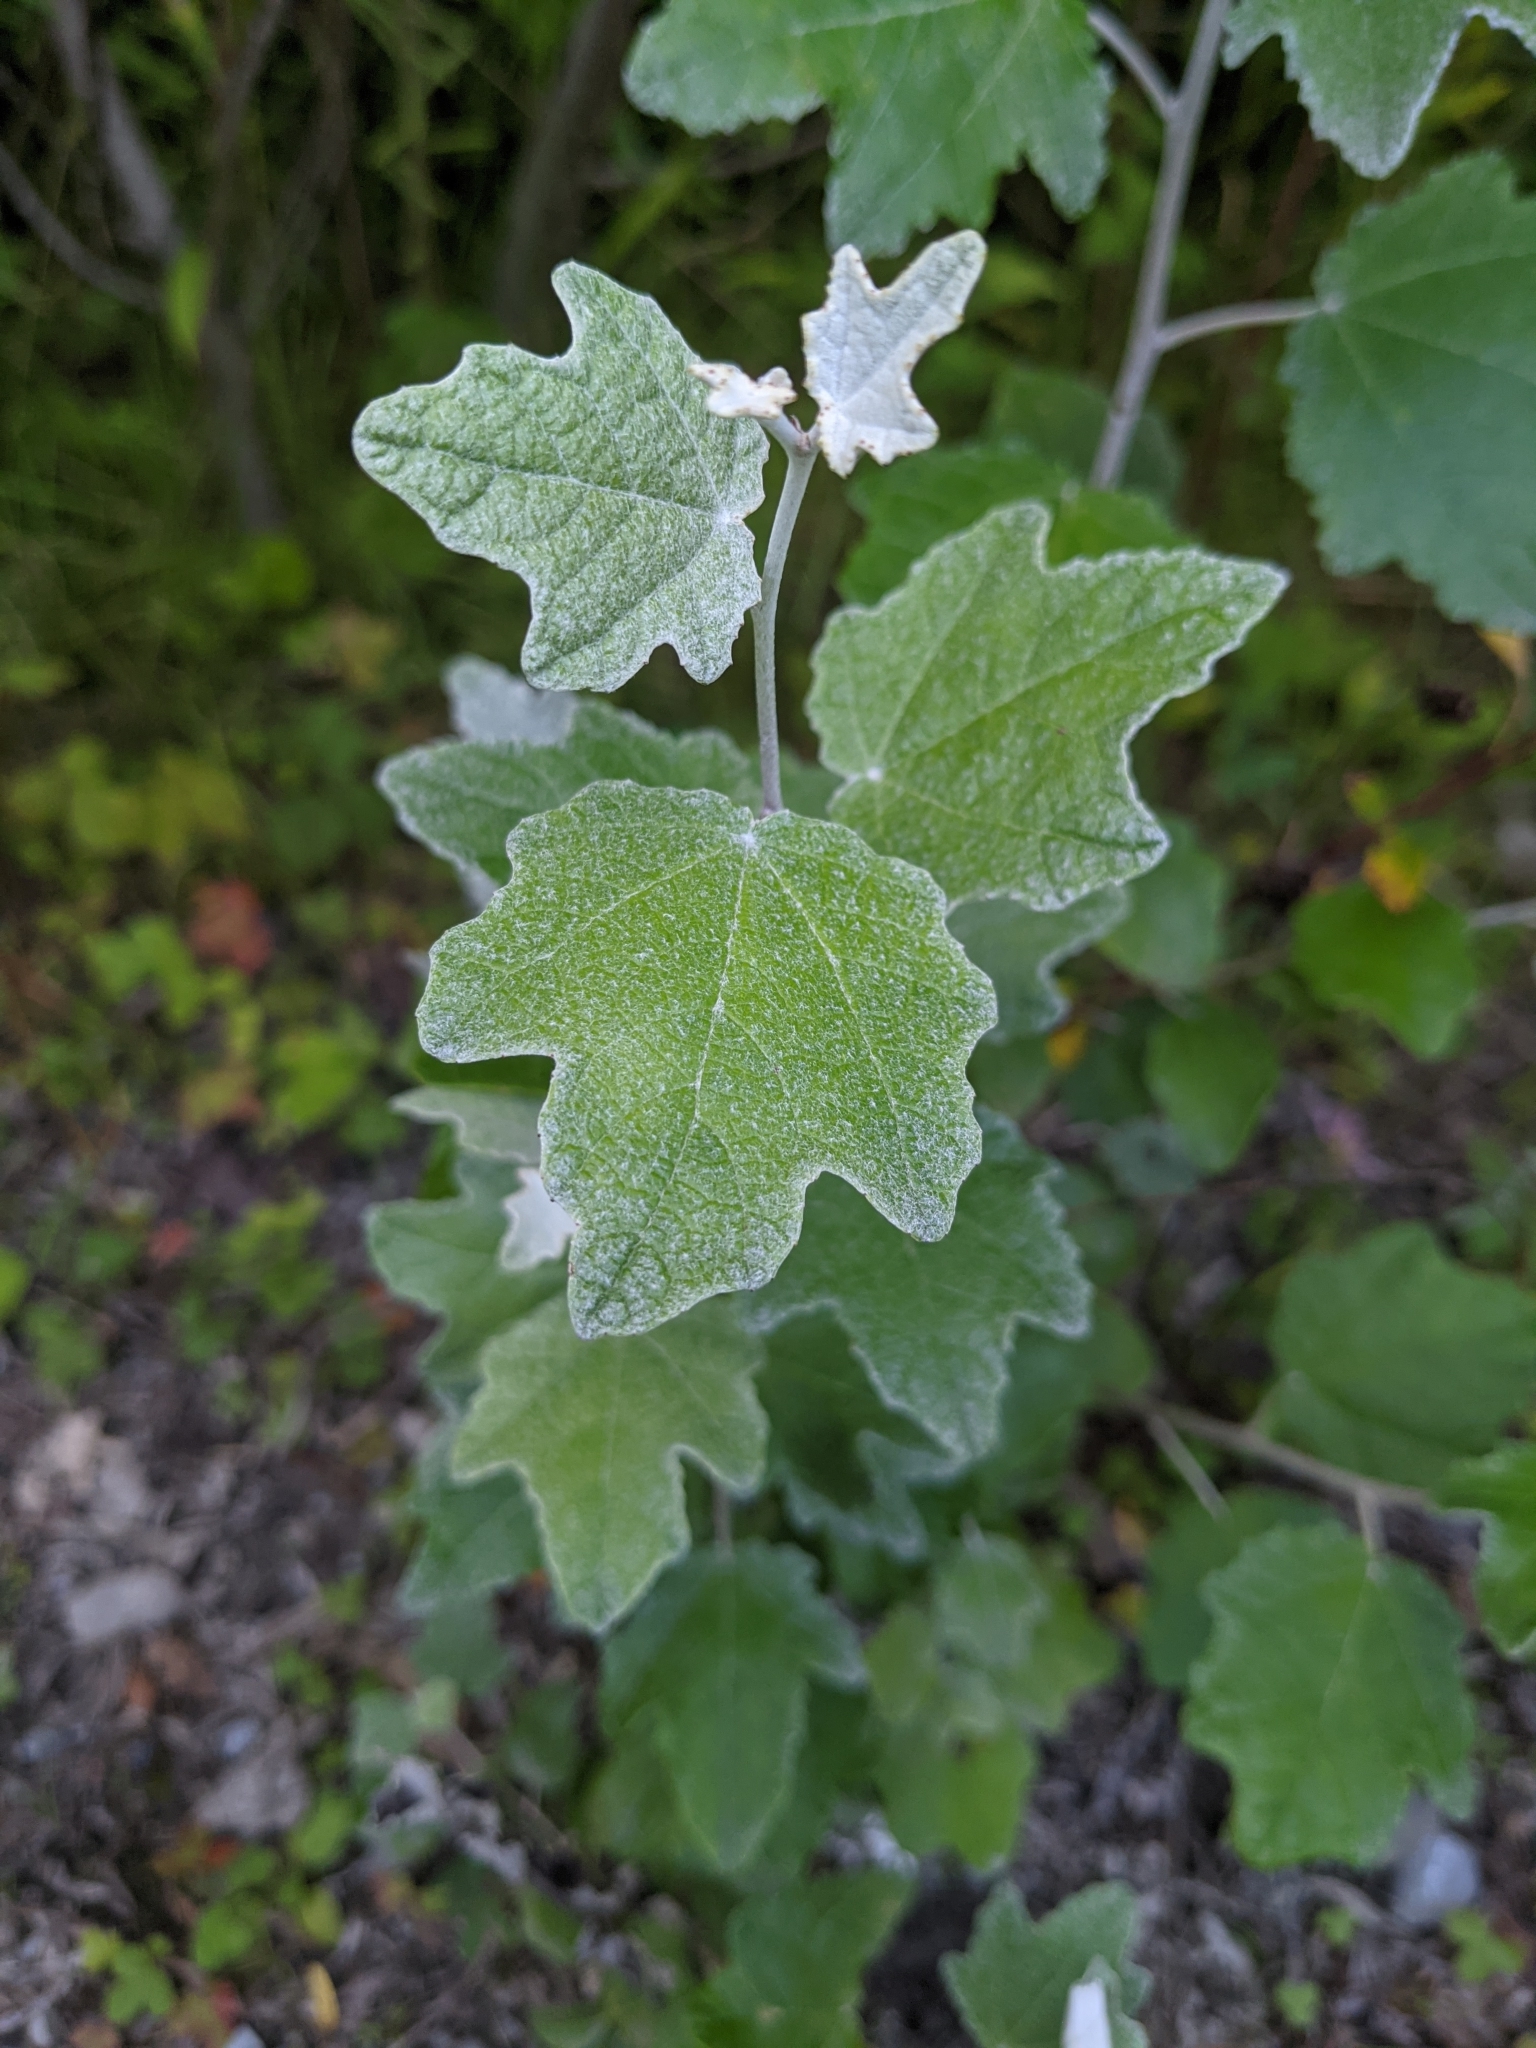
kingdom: Plantae
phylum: Tracheophyta
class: Magnoliopsida
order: Malpighiales
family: Salicaceae
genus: Populus
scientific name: Populus alba
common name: White poplar
